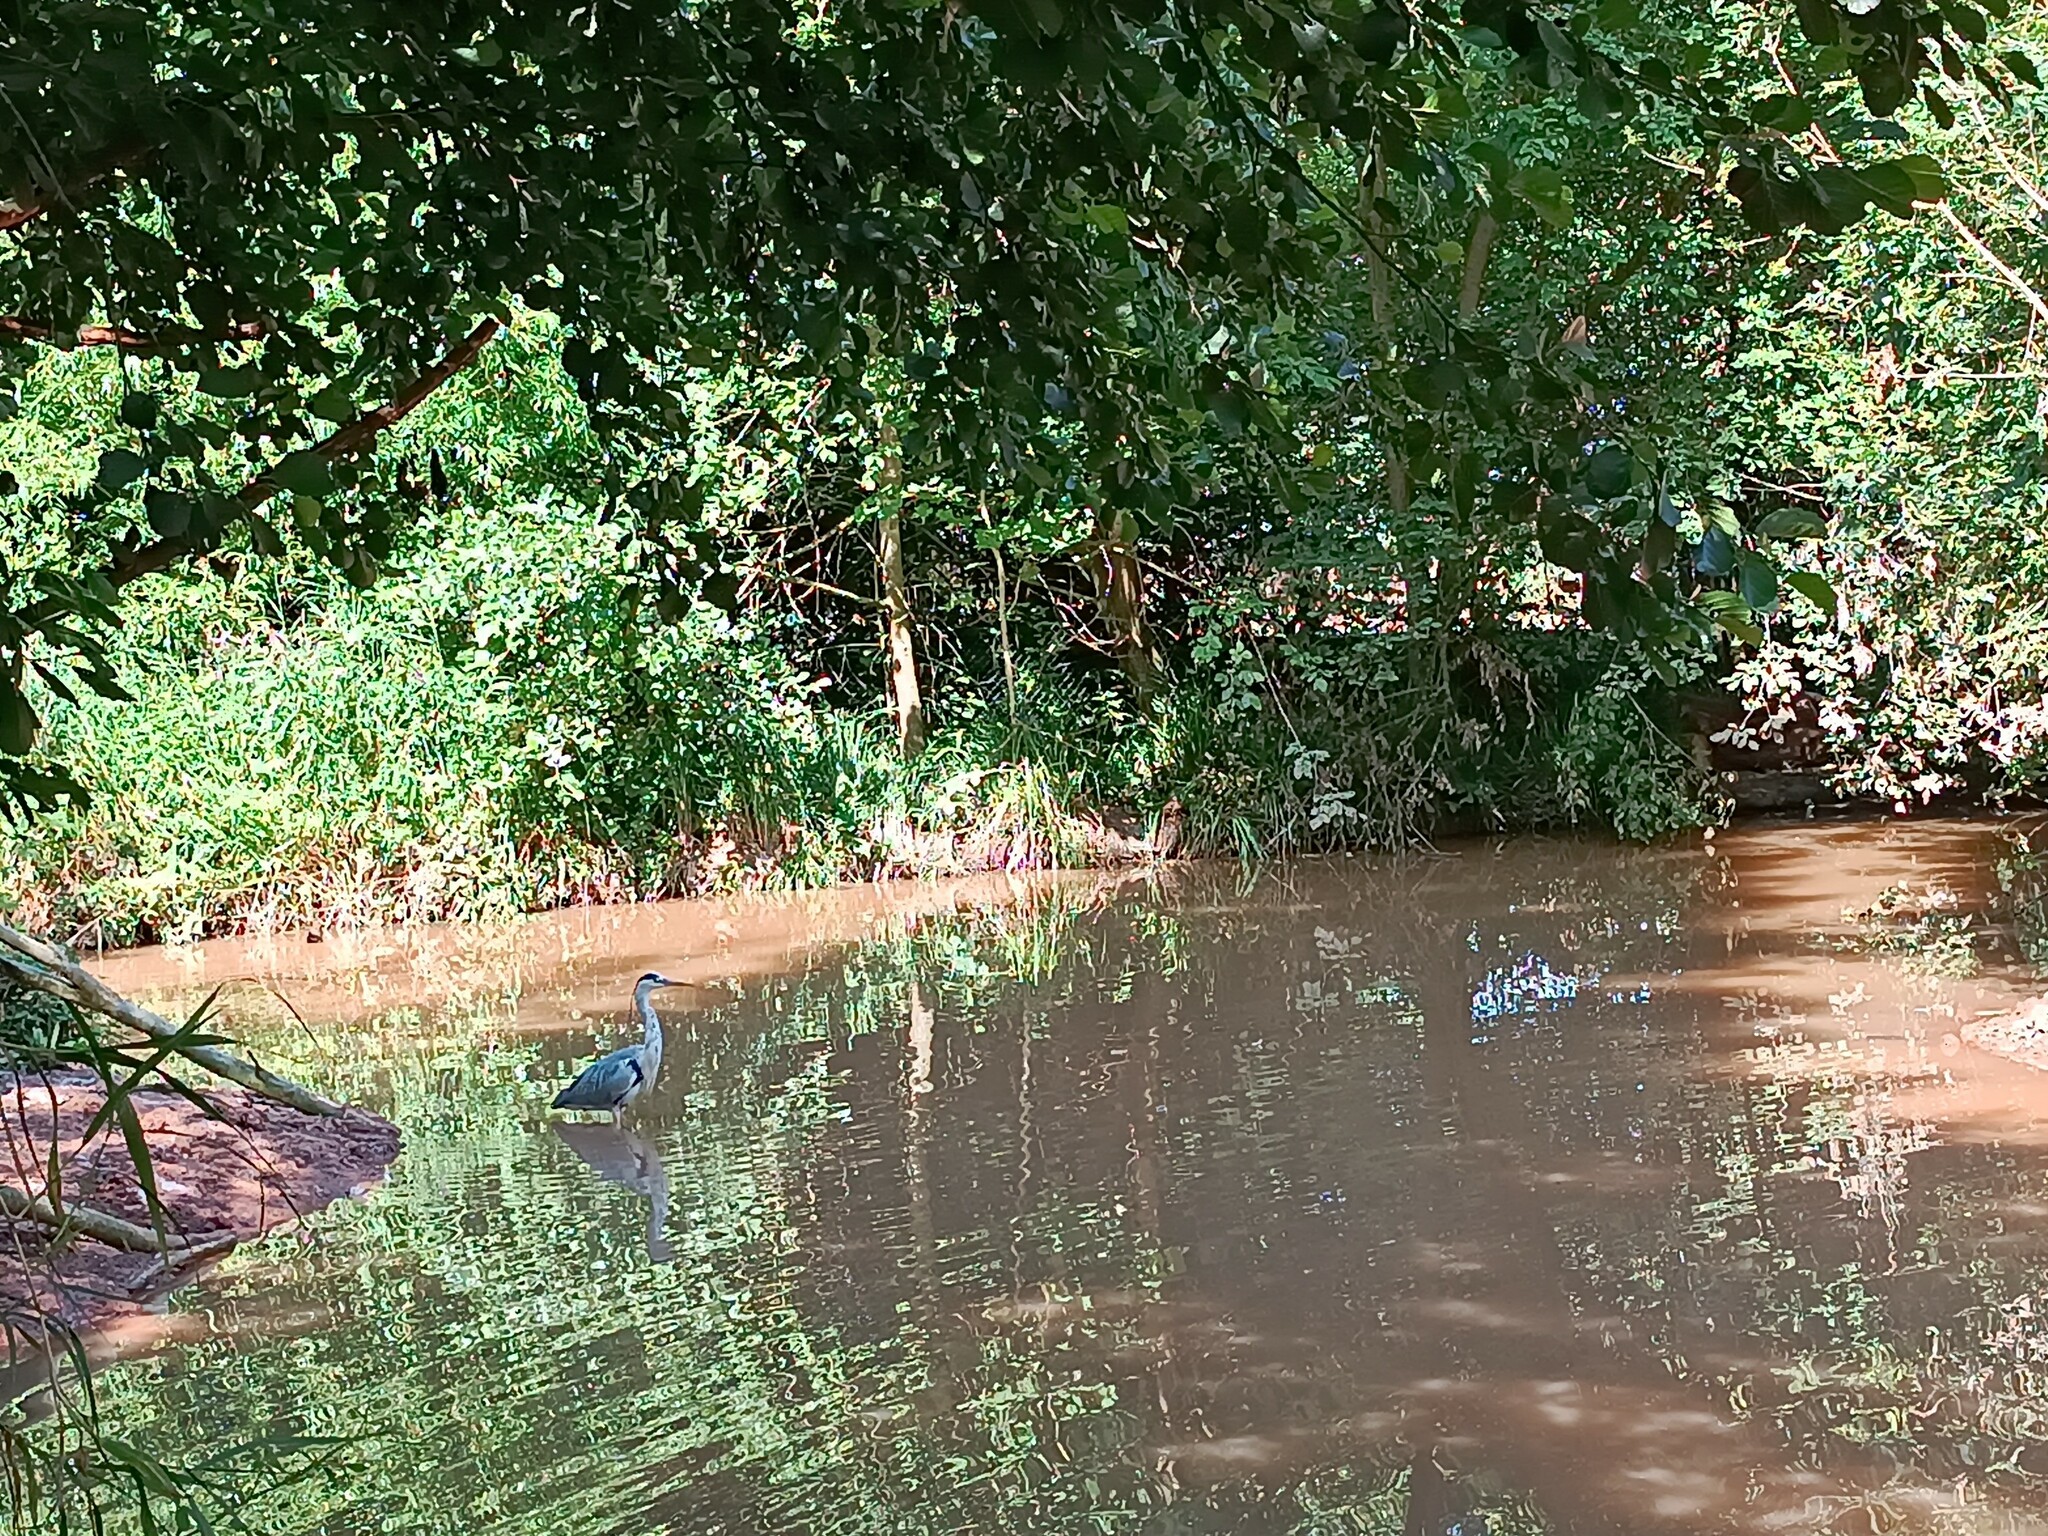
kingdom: Animalia
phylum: Chordata
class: Aves
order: Pelecaniformes
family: Ardeidae
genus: Ardea
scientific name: Ardea cinerea
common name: Grey heron
